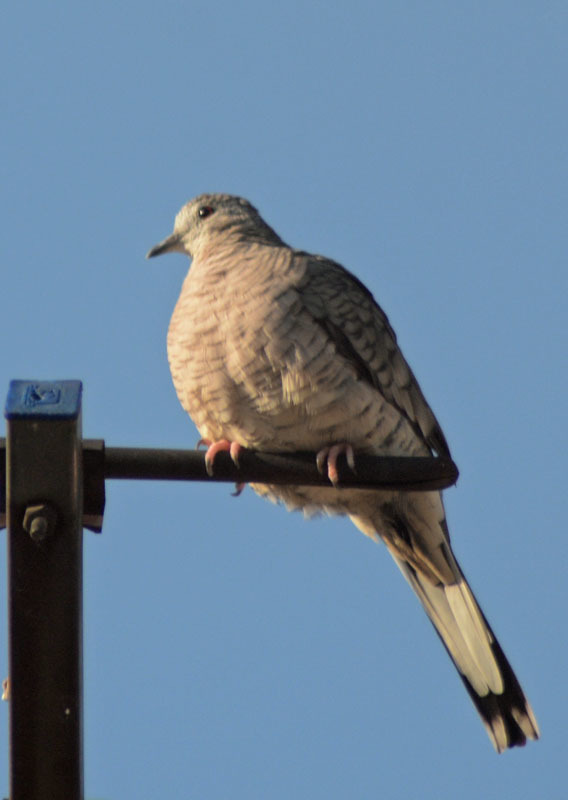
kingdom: Animalia
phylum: Chordata
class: Aves
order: Columbiformes
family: Columbidae
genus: Columbina
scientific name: Columbina inca
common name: Inca dove
